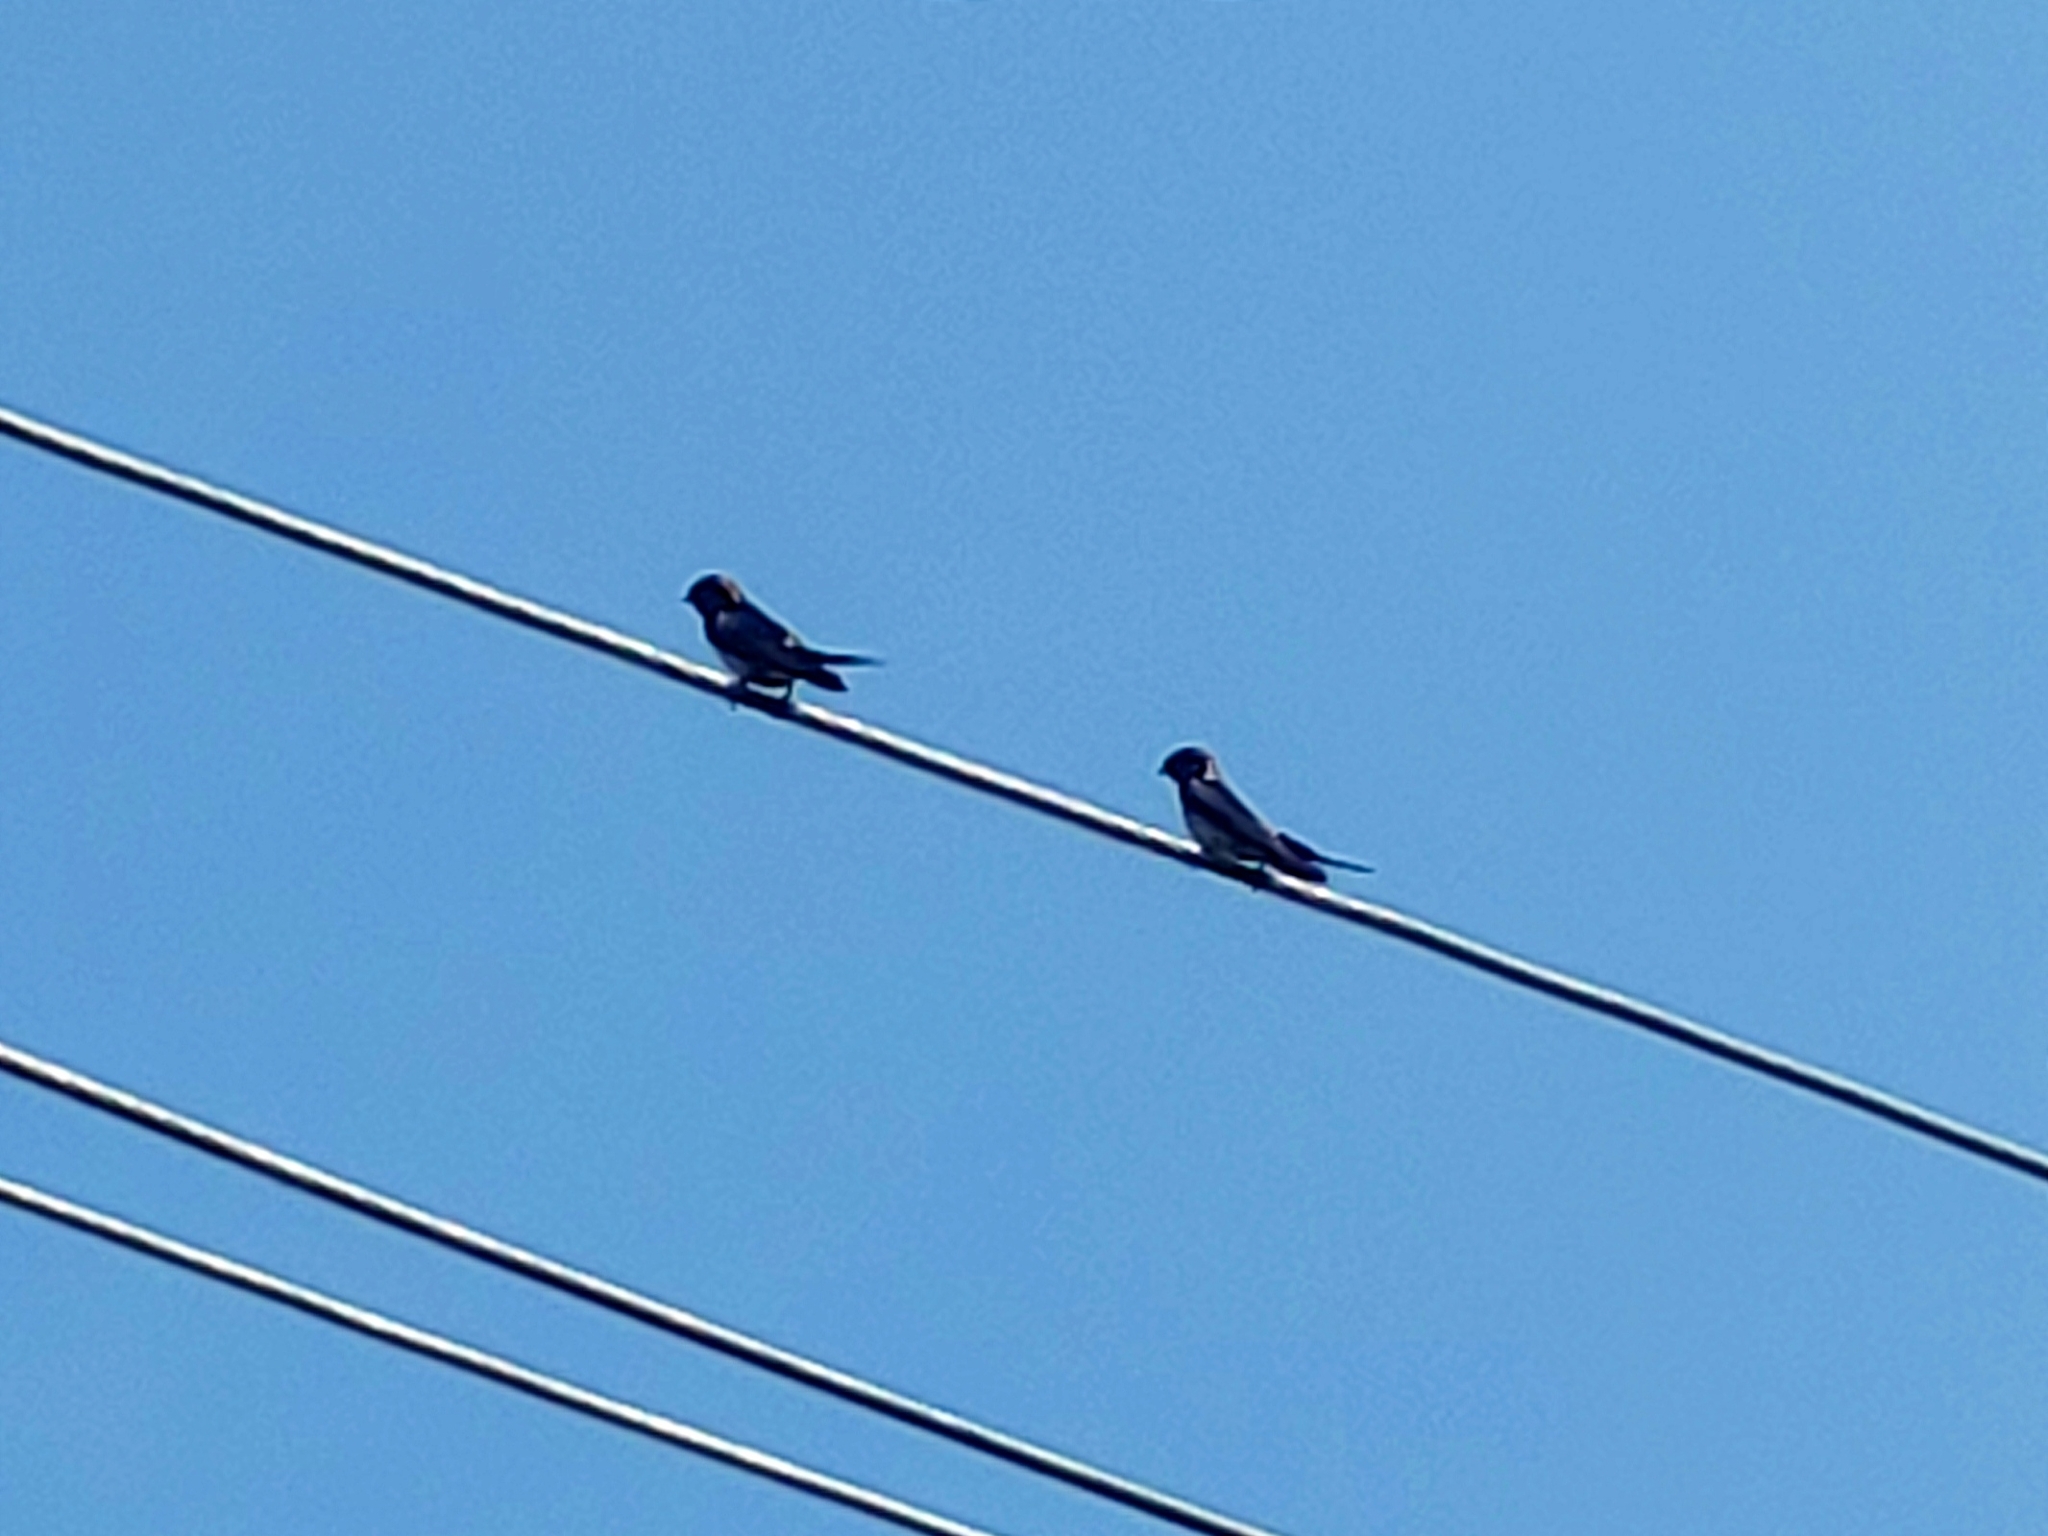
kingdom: Animalia
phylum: Chordata
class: Aves
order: Passeriformes
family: Hirundinidae
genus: Cecropis
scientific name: Cecropis striolata
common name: Striated swallow
